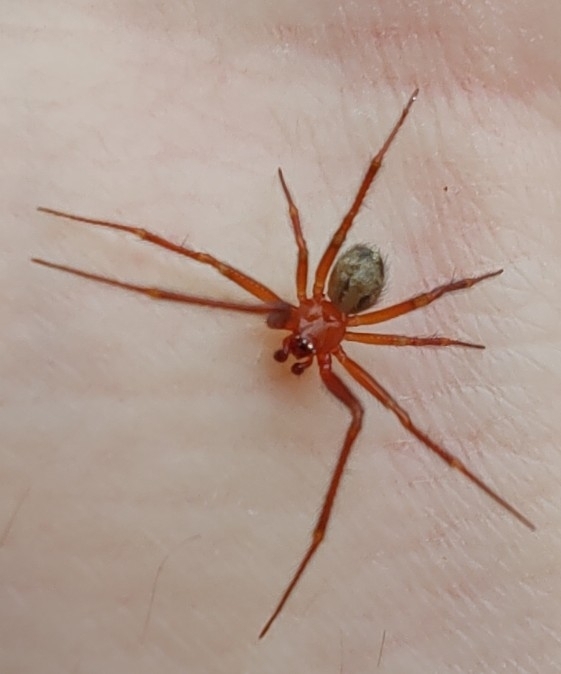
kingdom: Animalia
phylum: Arthropoda
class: Arachnida
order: Araneae
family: Theridiidae
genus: Nesticodes
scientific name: Nesticodes rufipes
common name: Cobweb spiders
